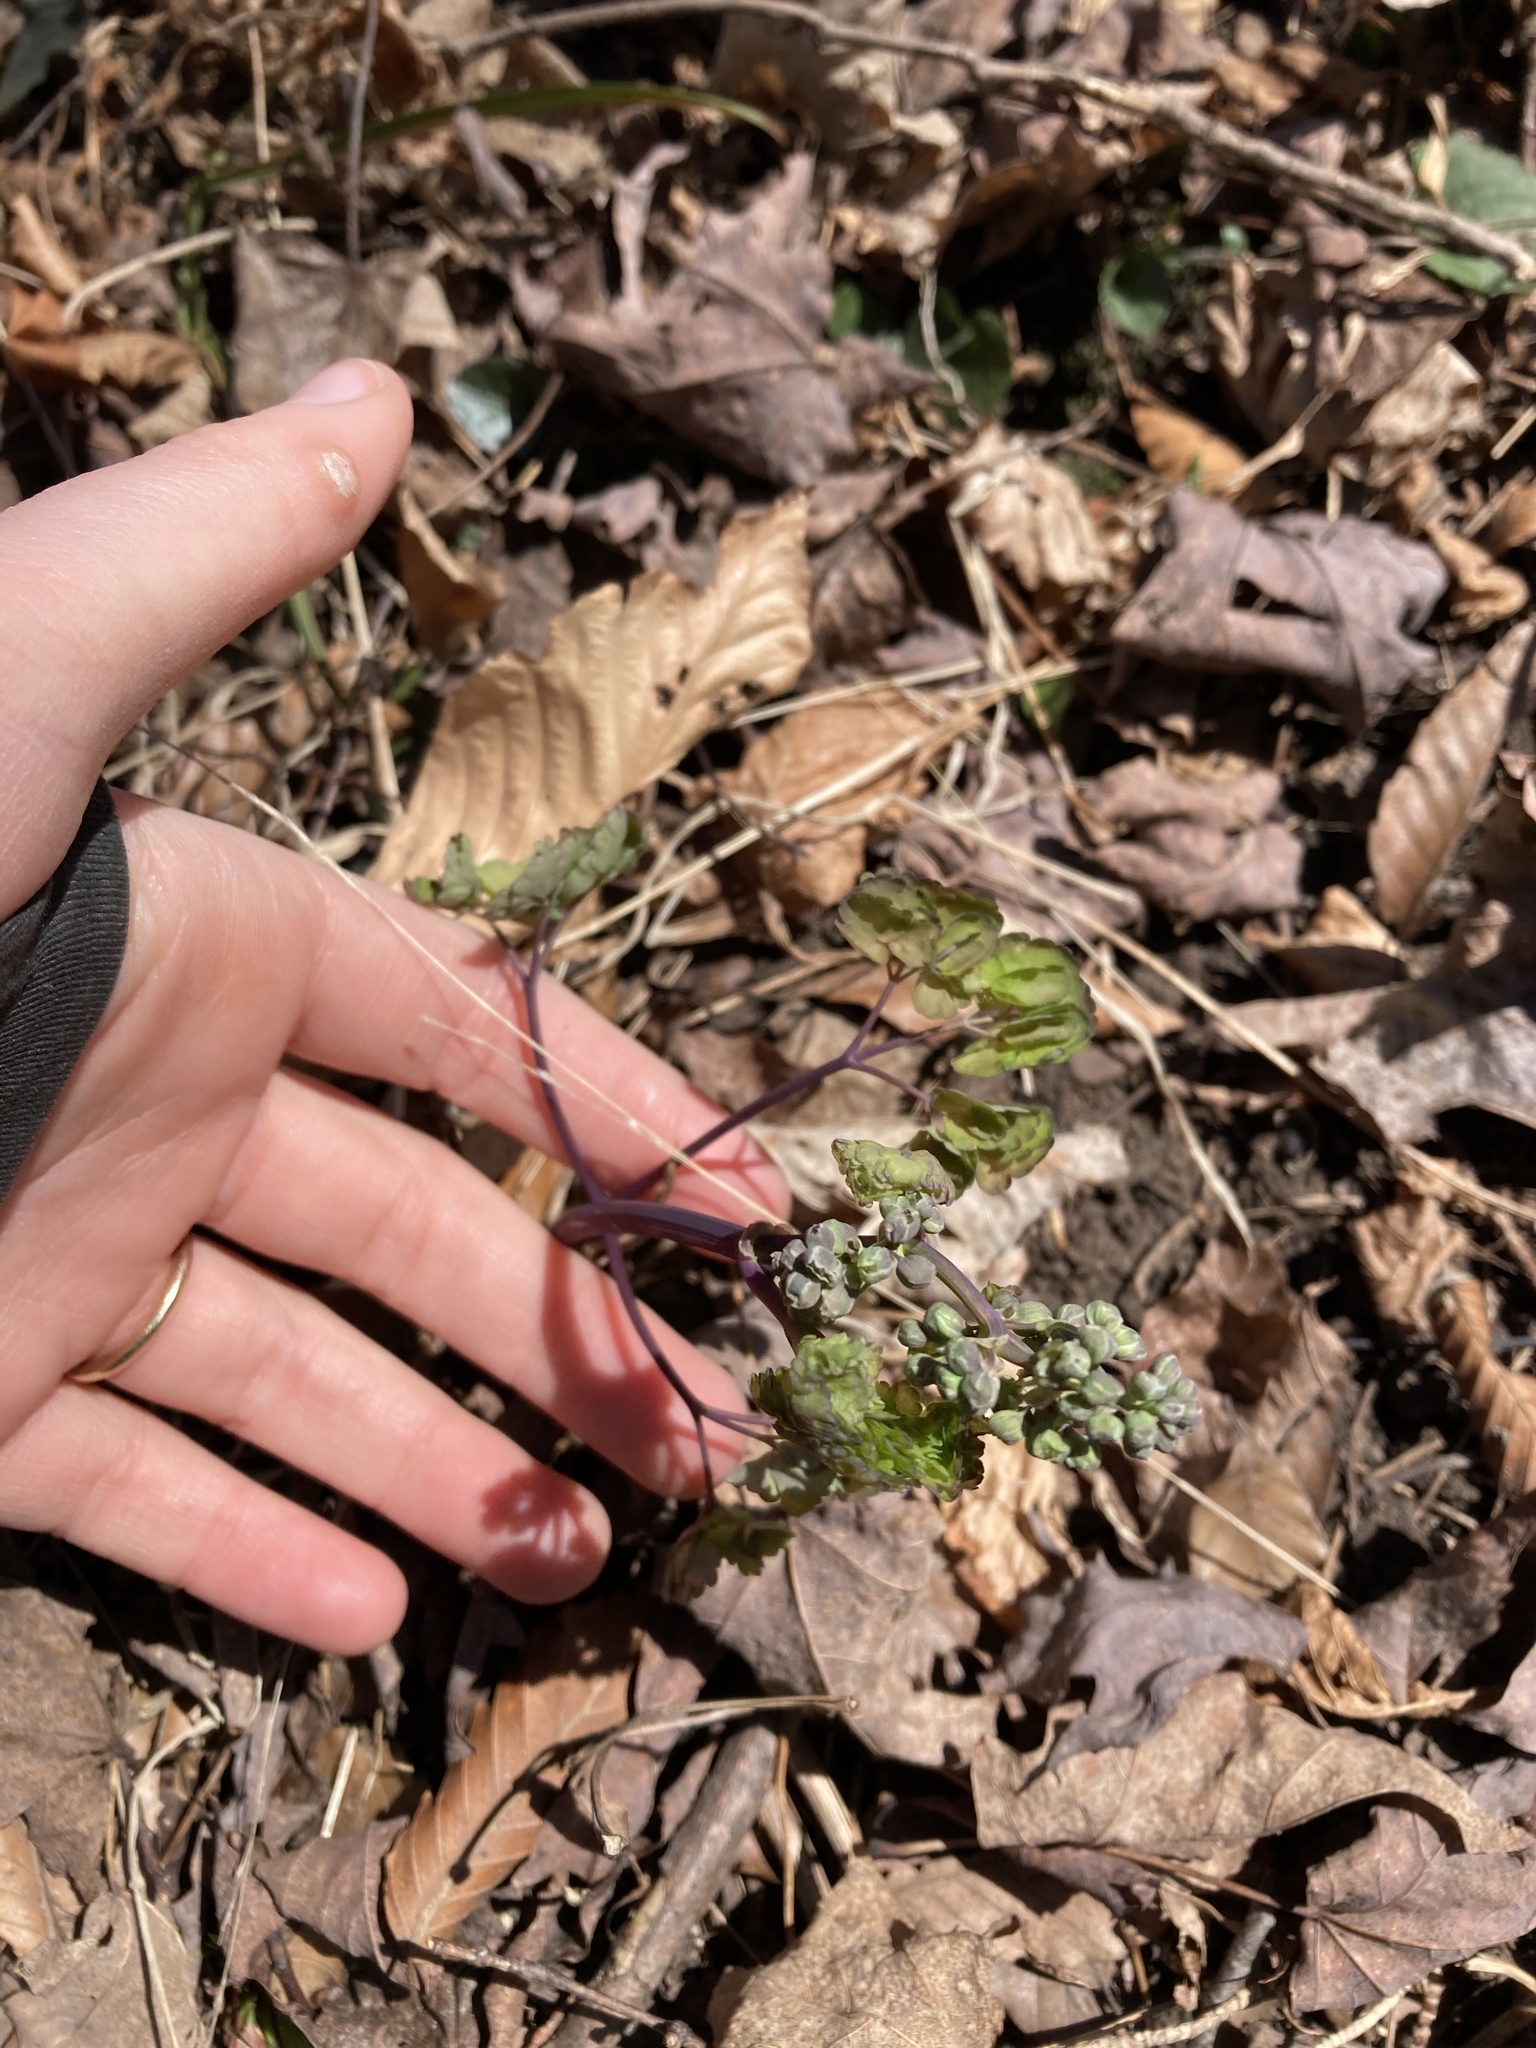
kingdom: Plantae
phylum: Tracheophyta
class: Magnoliopsida
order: Ranunculales
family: Ranunculaceae
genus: Thalictrum
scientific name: Thalictrum dioicum
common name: Early meadow-rue
